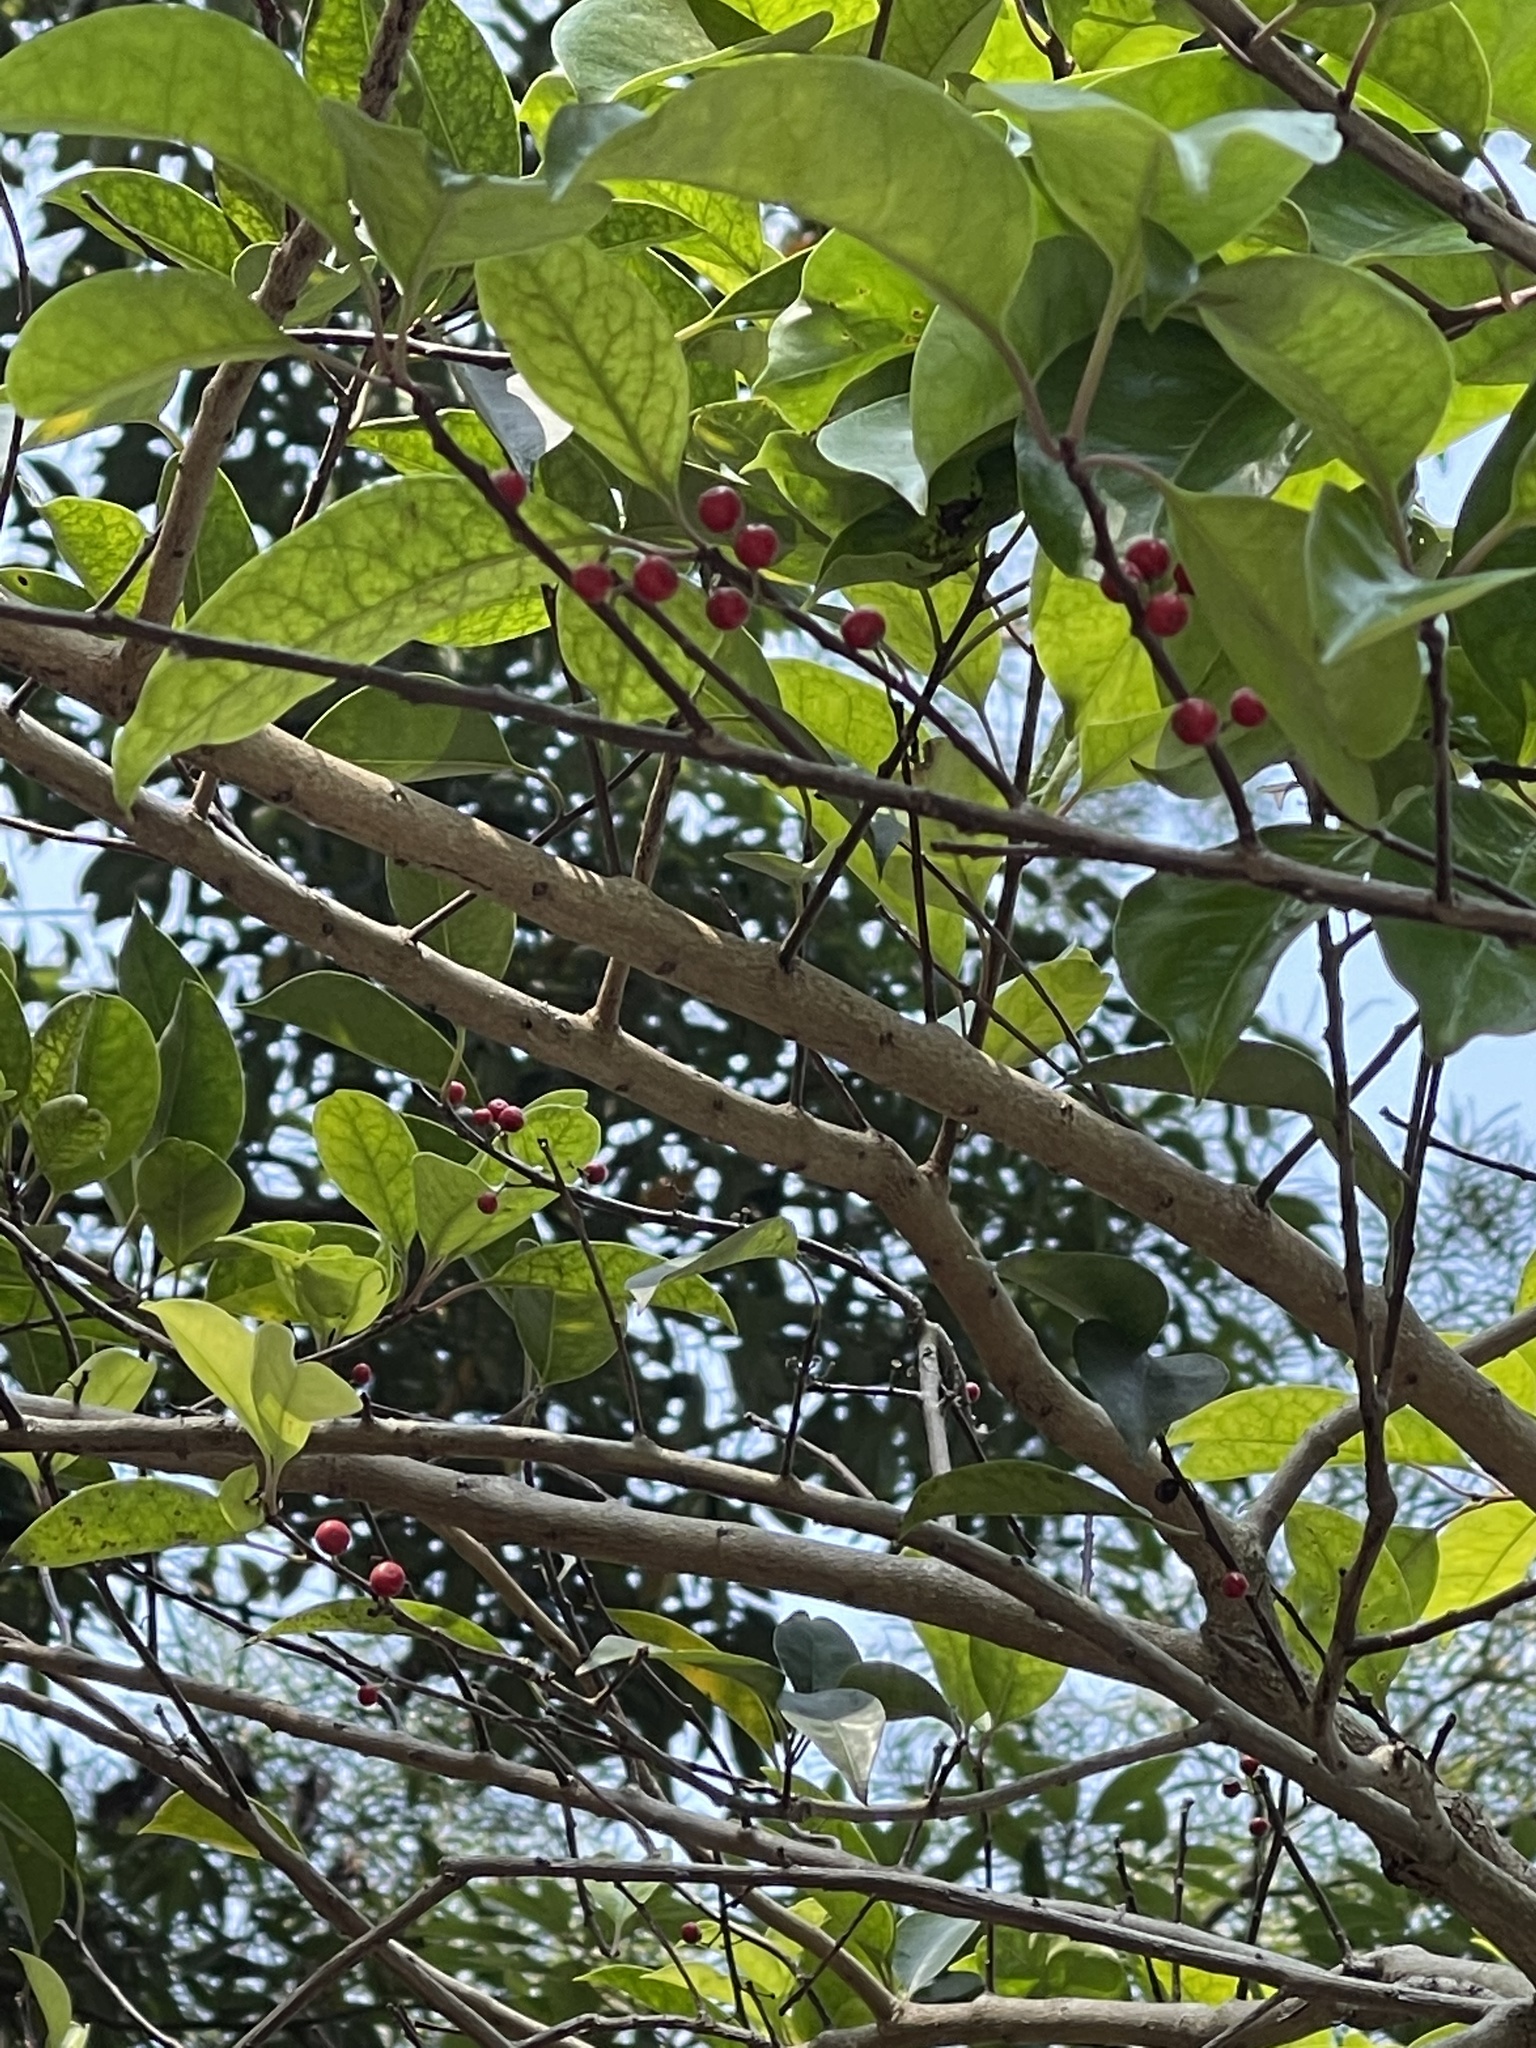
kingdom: Plantae
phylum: Tracheophyta
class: Magnoliopsida
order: Aquifoliales
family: Aquifoliaceae
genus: Ilex
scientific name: Ilex rotunda
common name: Kurogane holly
